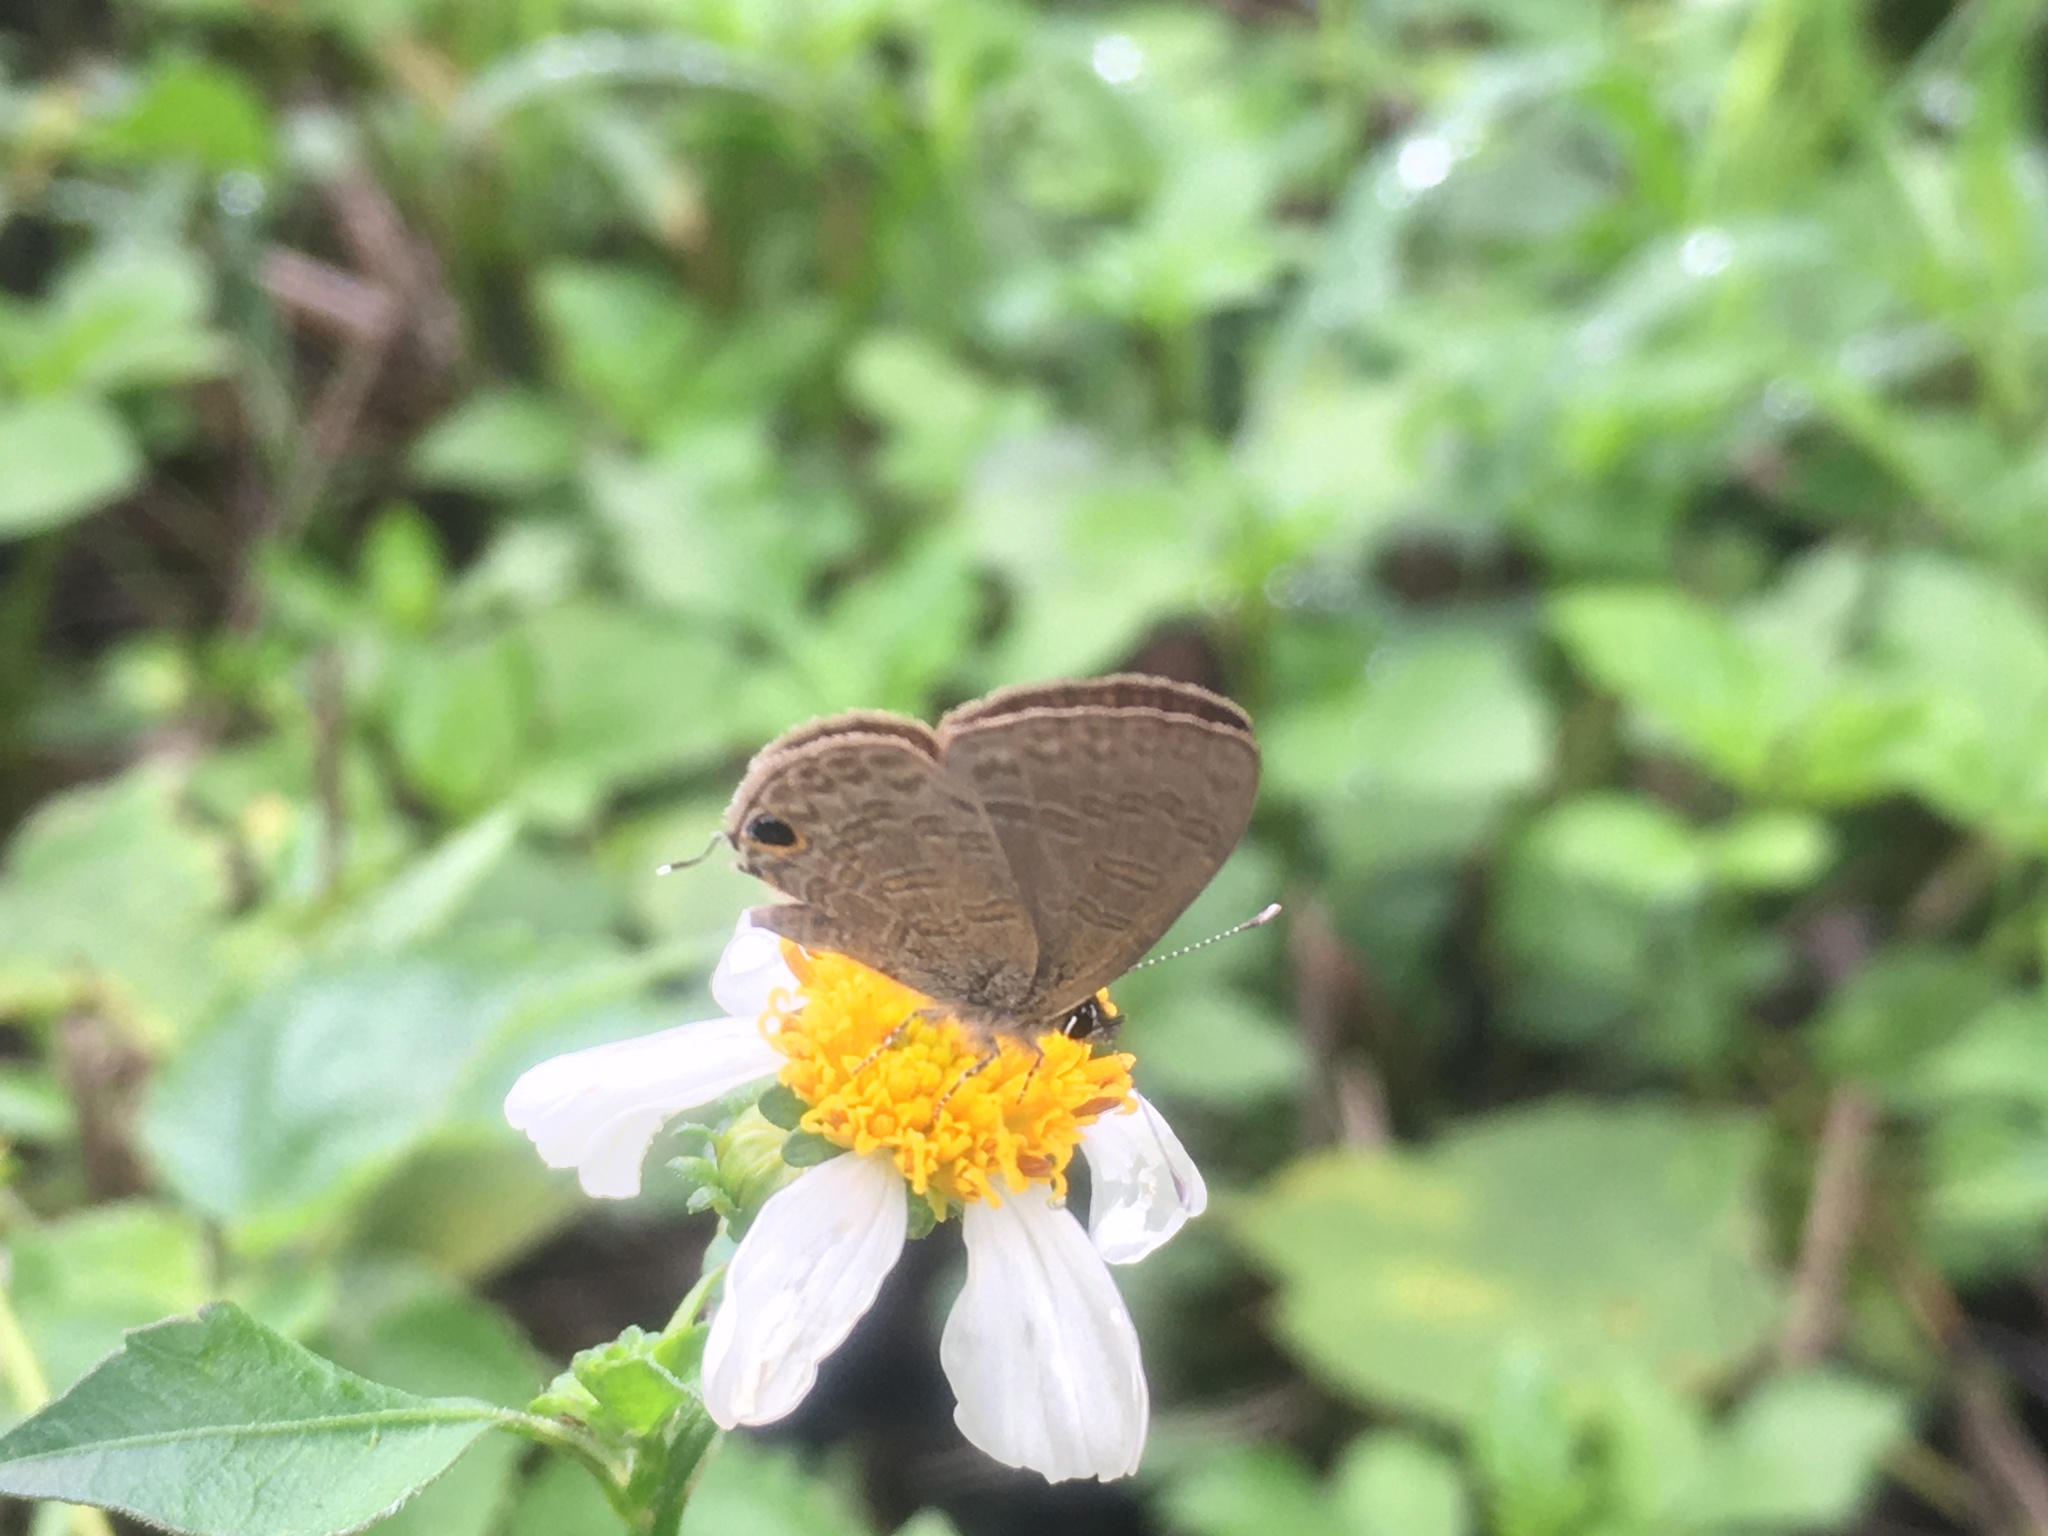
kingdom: Animalia
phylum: Arthropoda
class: Insecta
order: Lepidoptera
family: Lycaenidae
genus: Prosotas
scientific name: Prosotas nora
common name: Common line blue
